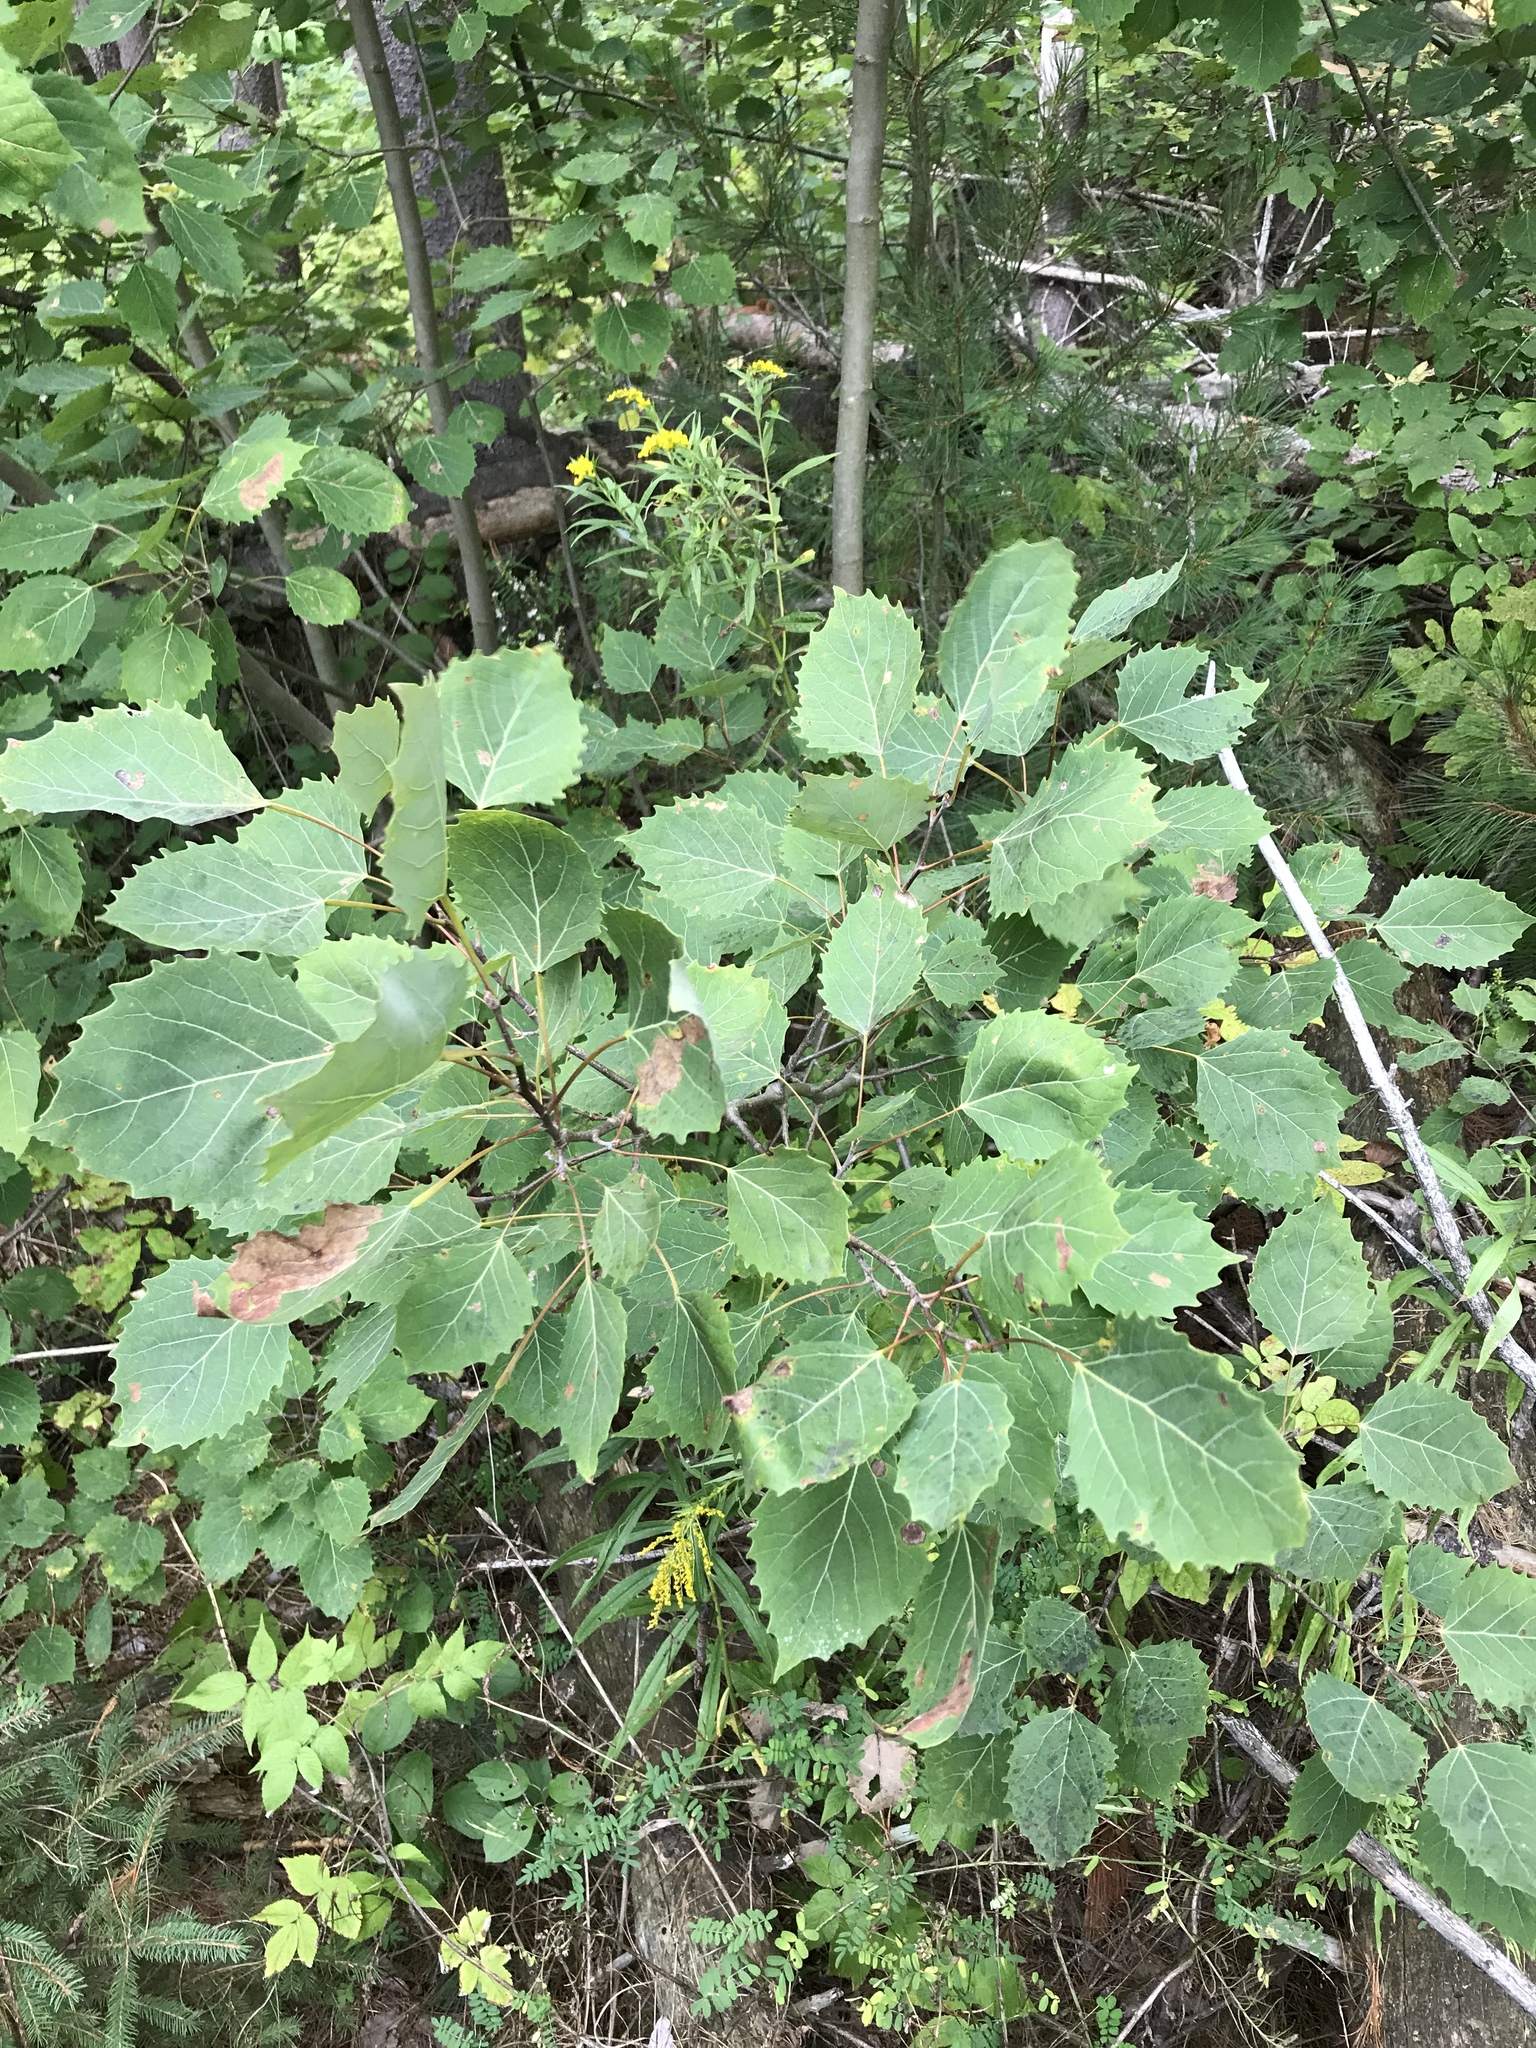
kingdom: Plantae
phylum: Tracheophyta
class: Magnoliopsida
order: Malpighiales
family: Salicaceae
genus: Populus
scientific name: Populus grandidentata
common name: Bigtooth aspen
